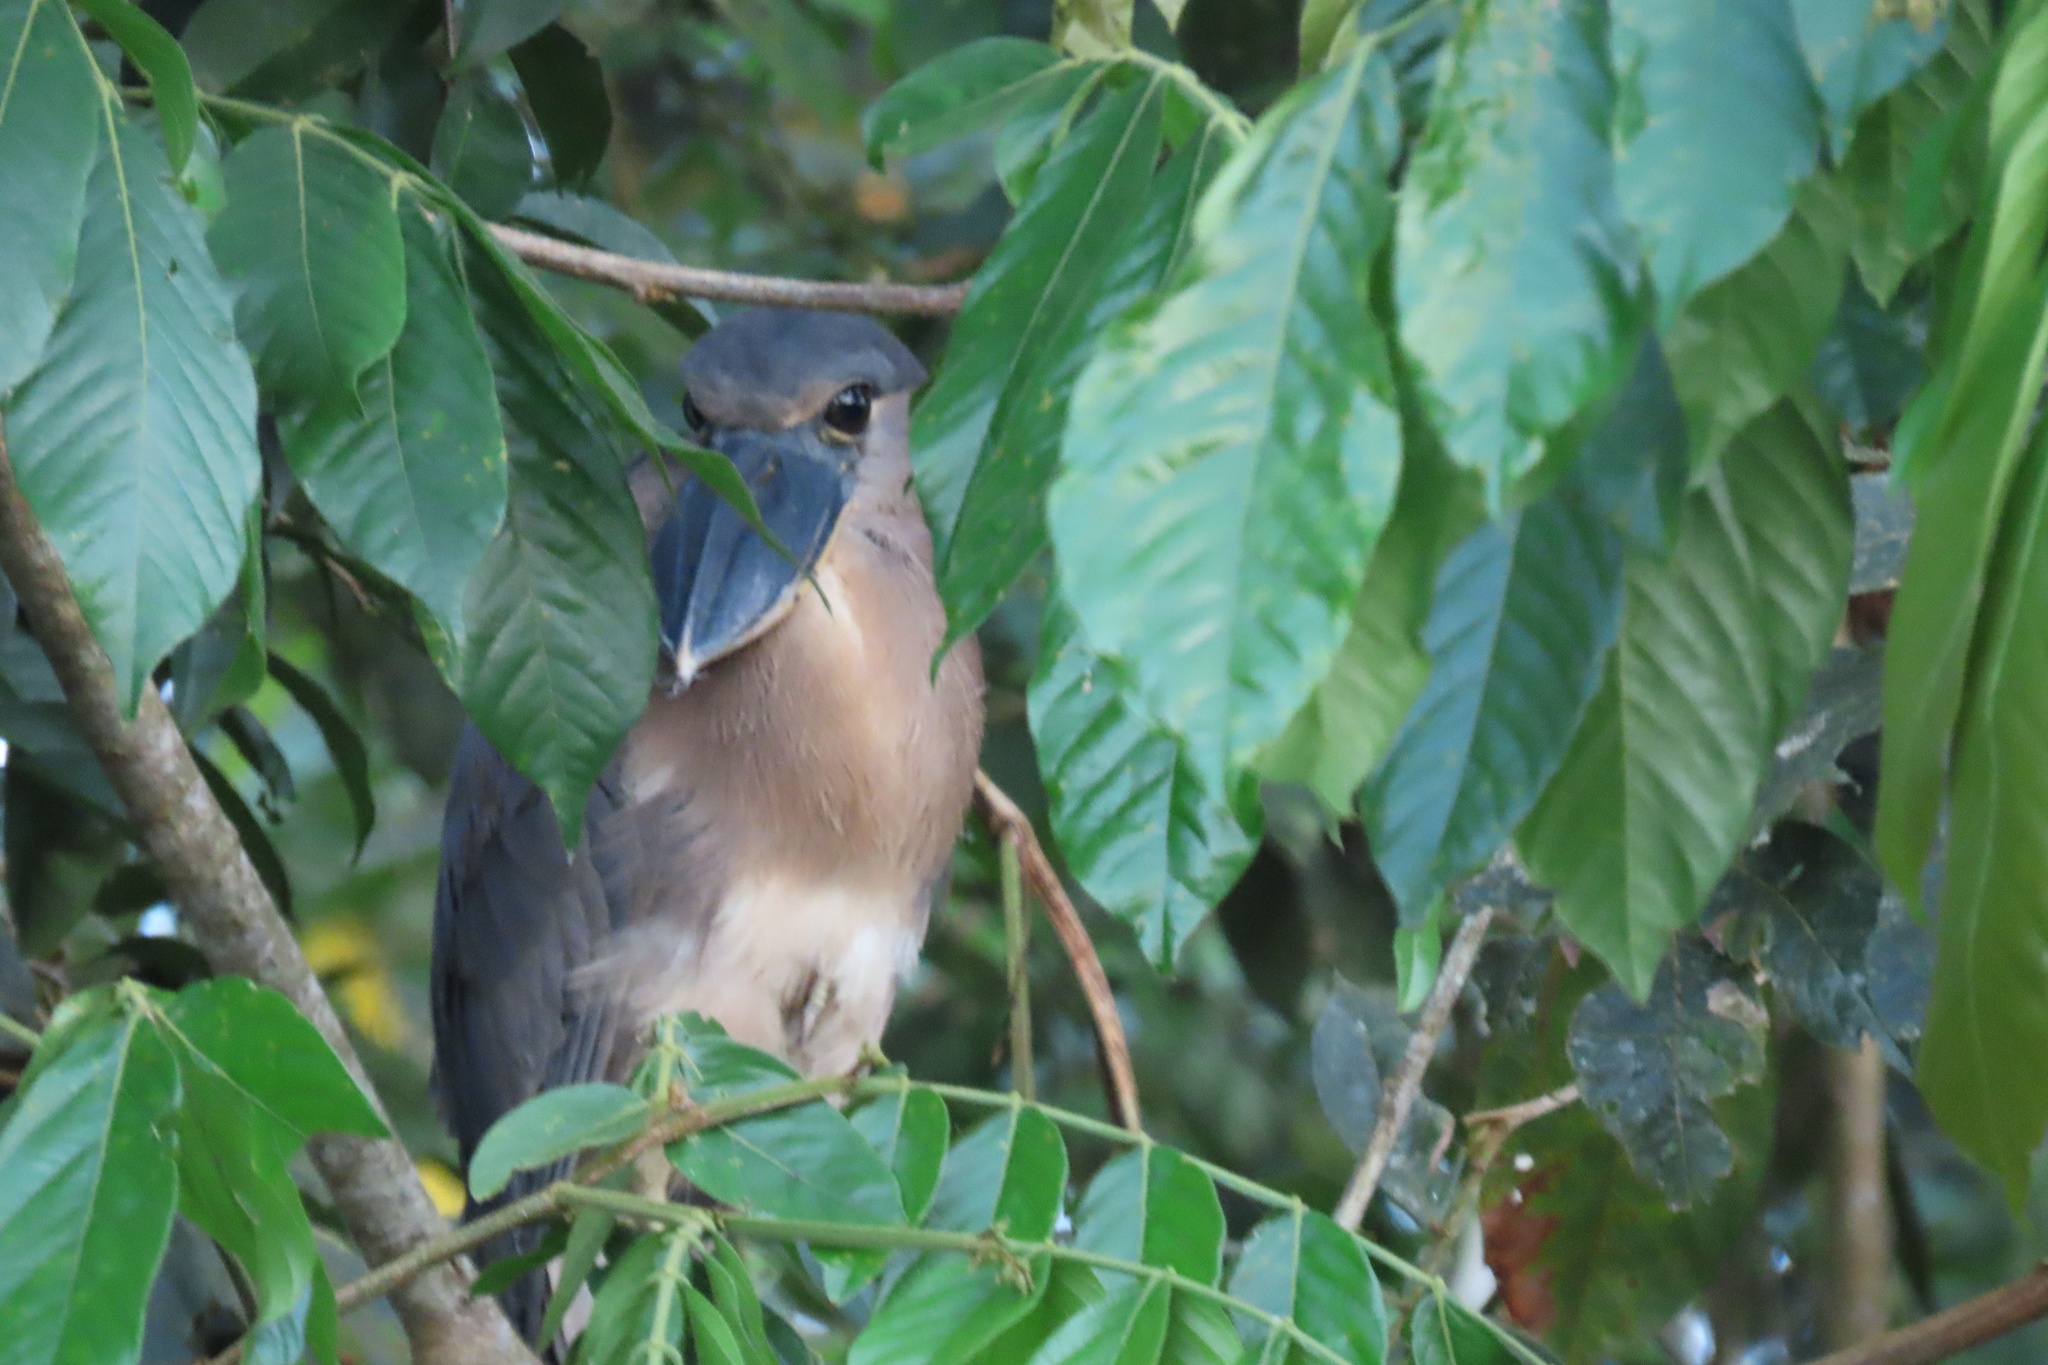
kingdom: Animalia
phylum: Chordata
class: Aves
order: Pelecaniformes
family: Ardeidae
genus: Cochlearius
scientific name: Cochlearius cochlearius
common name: Boat-billed heron
